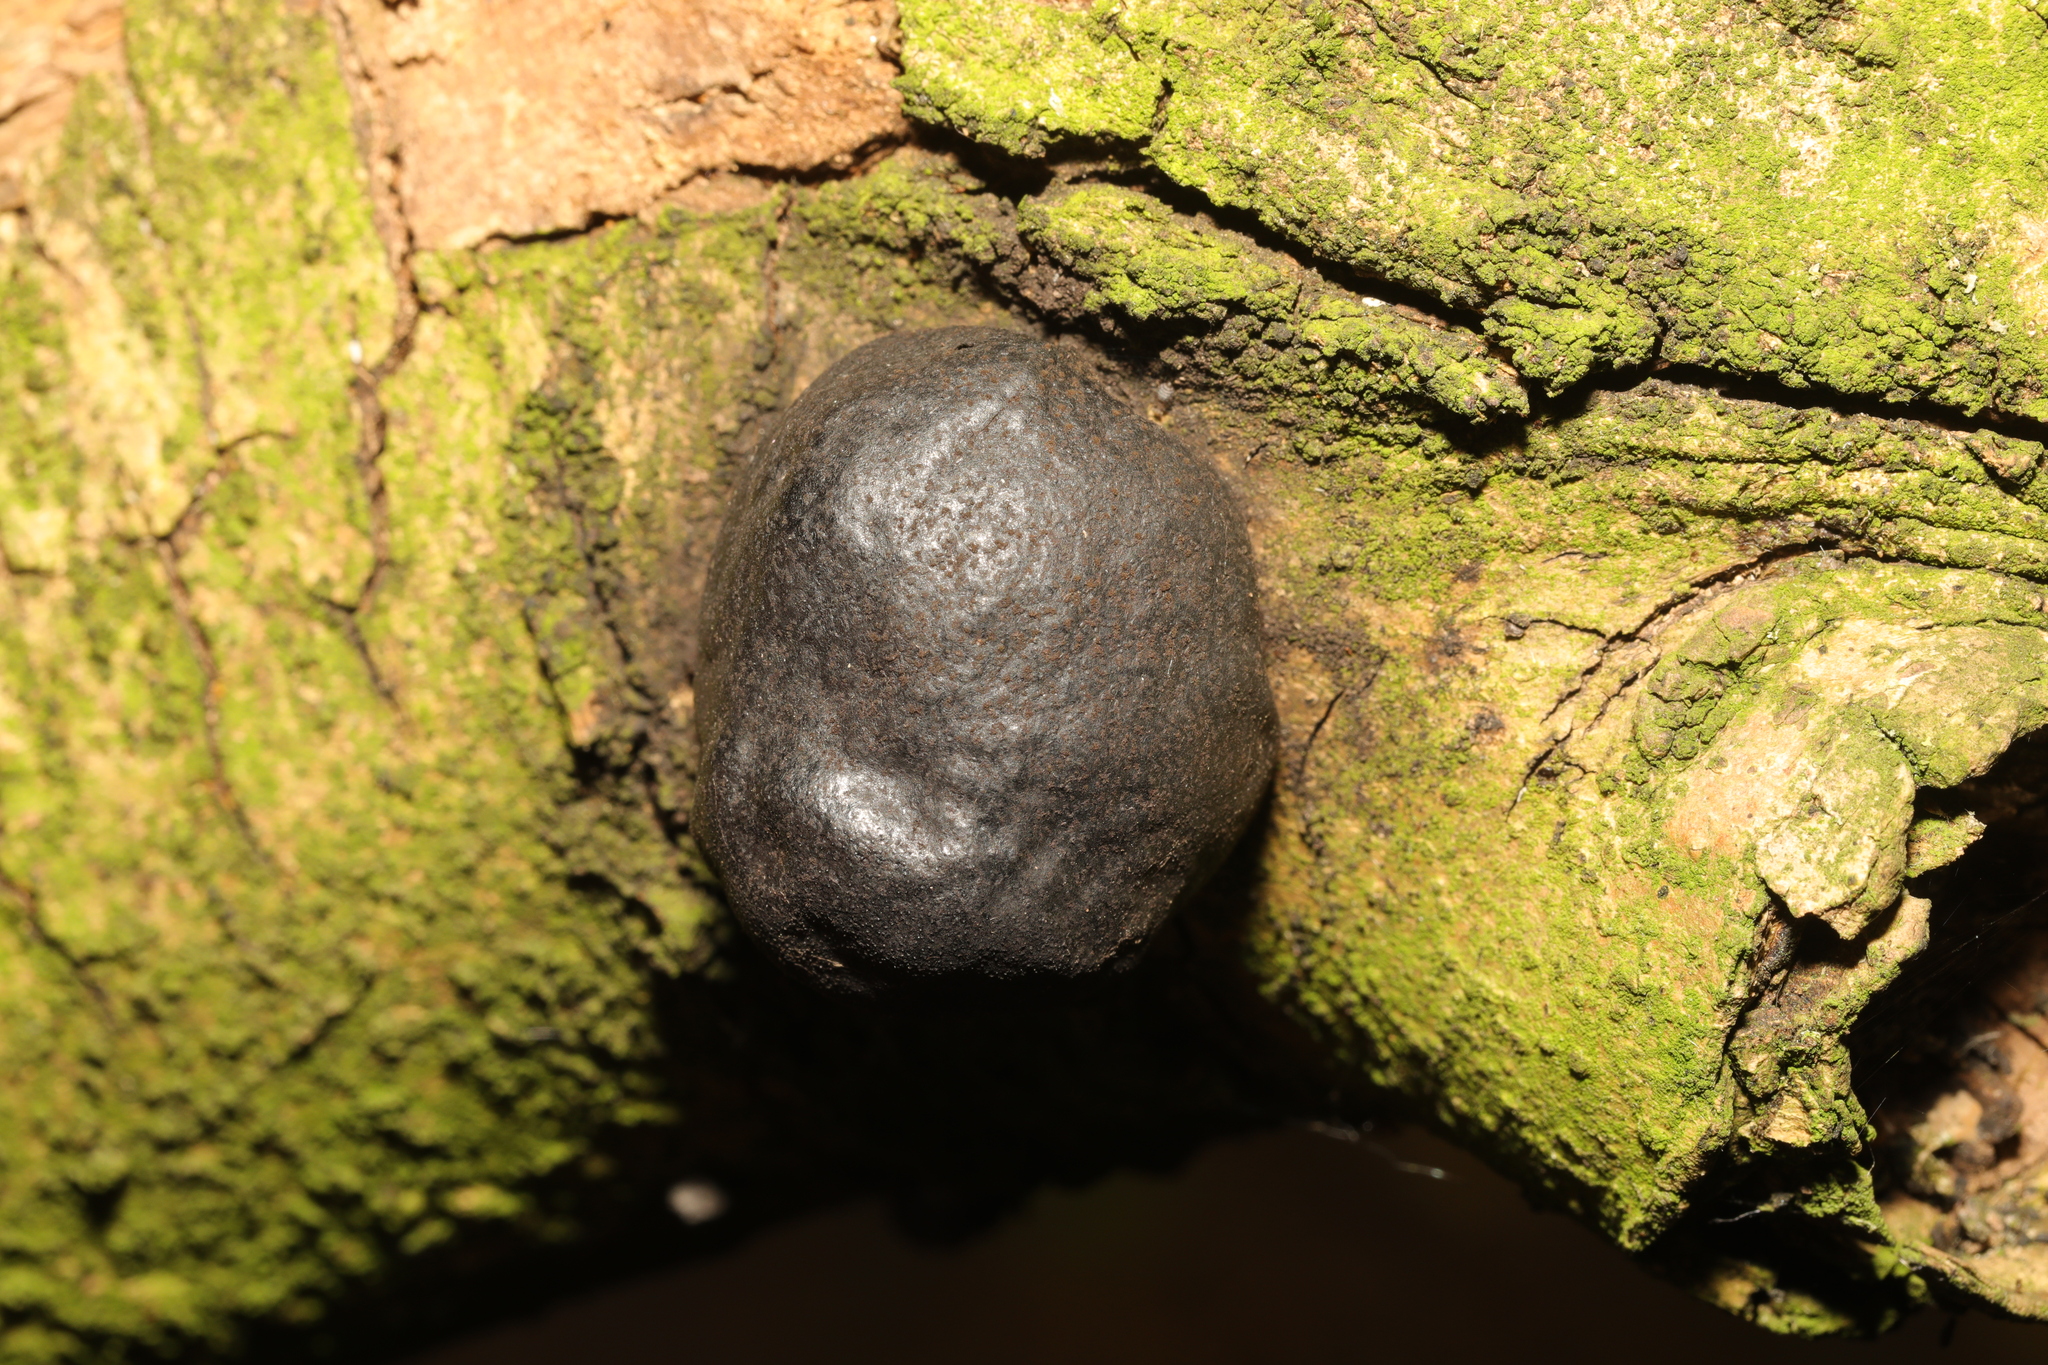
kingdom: Fungi
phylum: Ascomycota
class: Sordariomycetes
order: Xylariales
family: Hypoxylaceae
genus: Daldinia
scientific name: Daldinia concentrica
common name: Cramp balls
